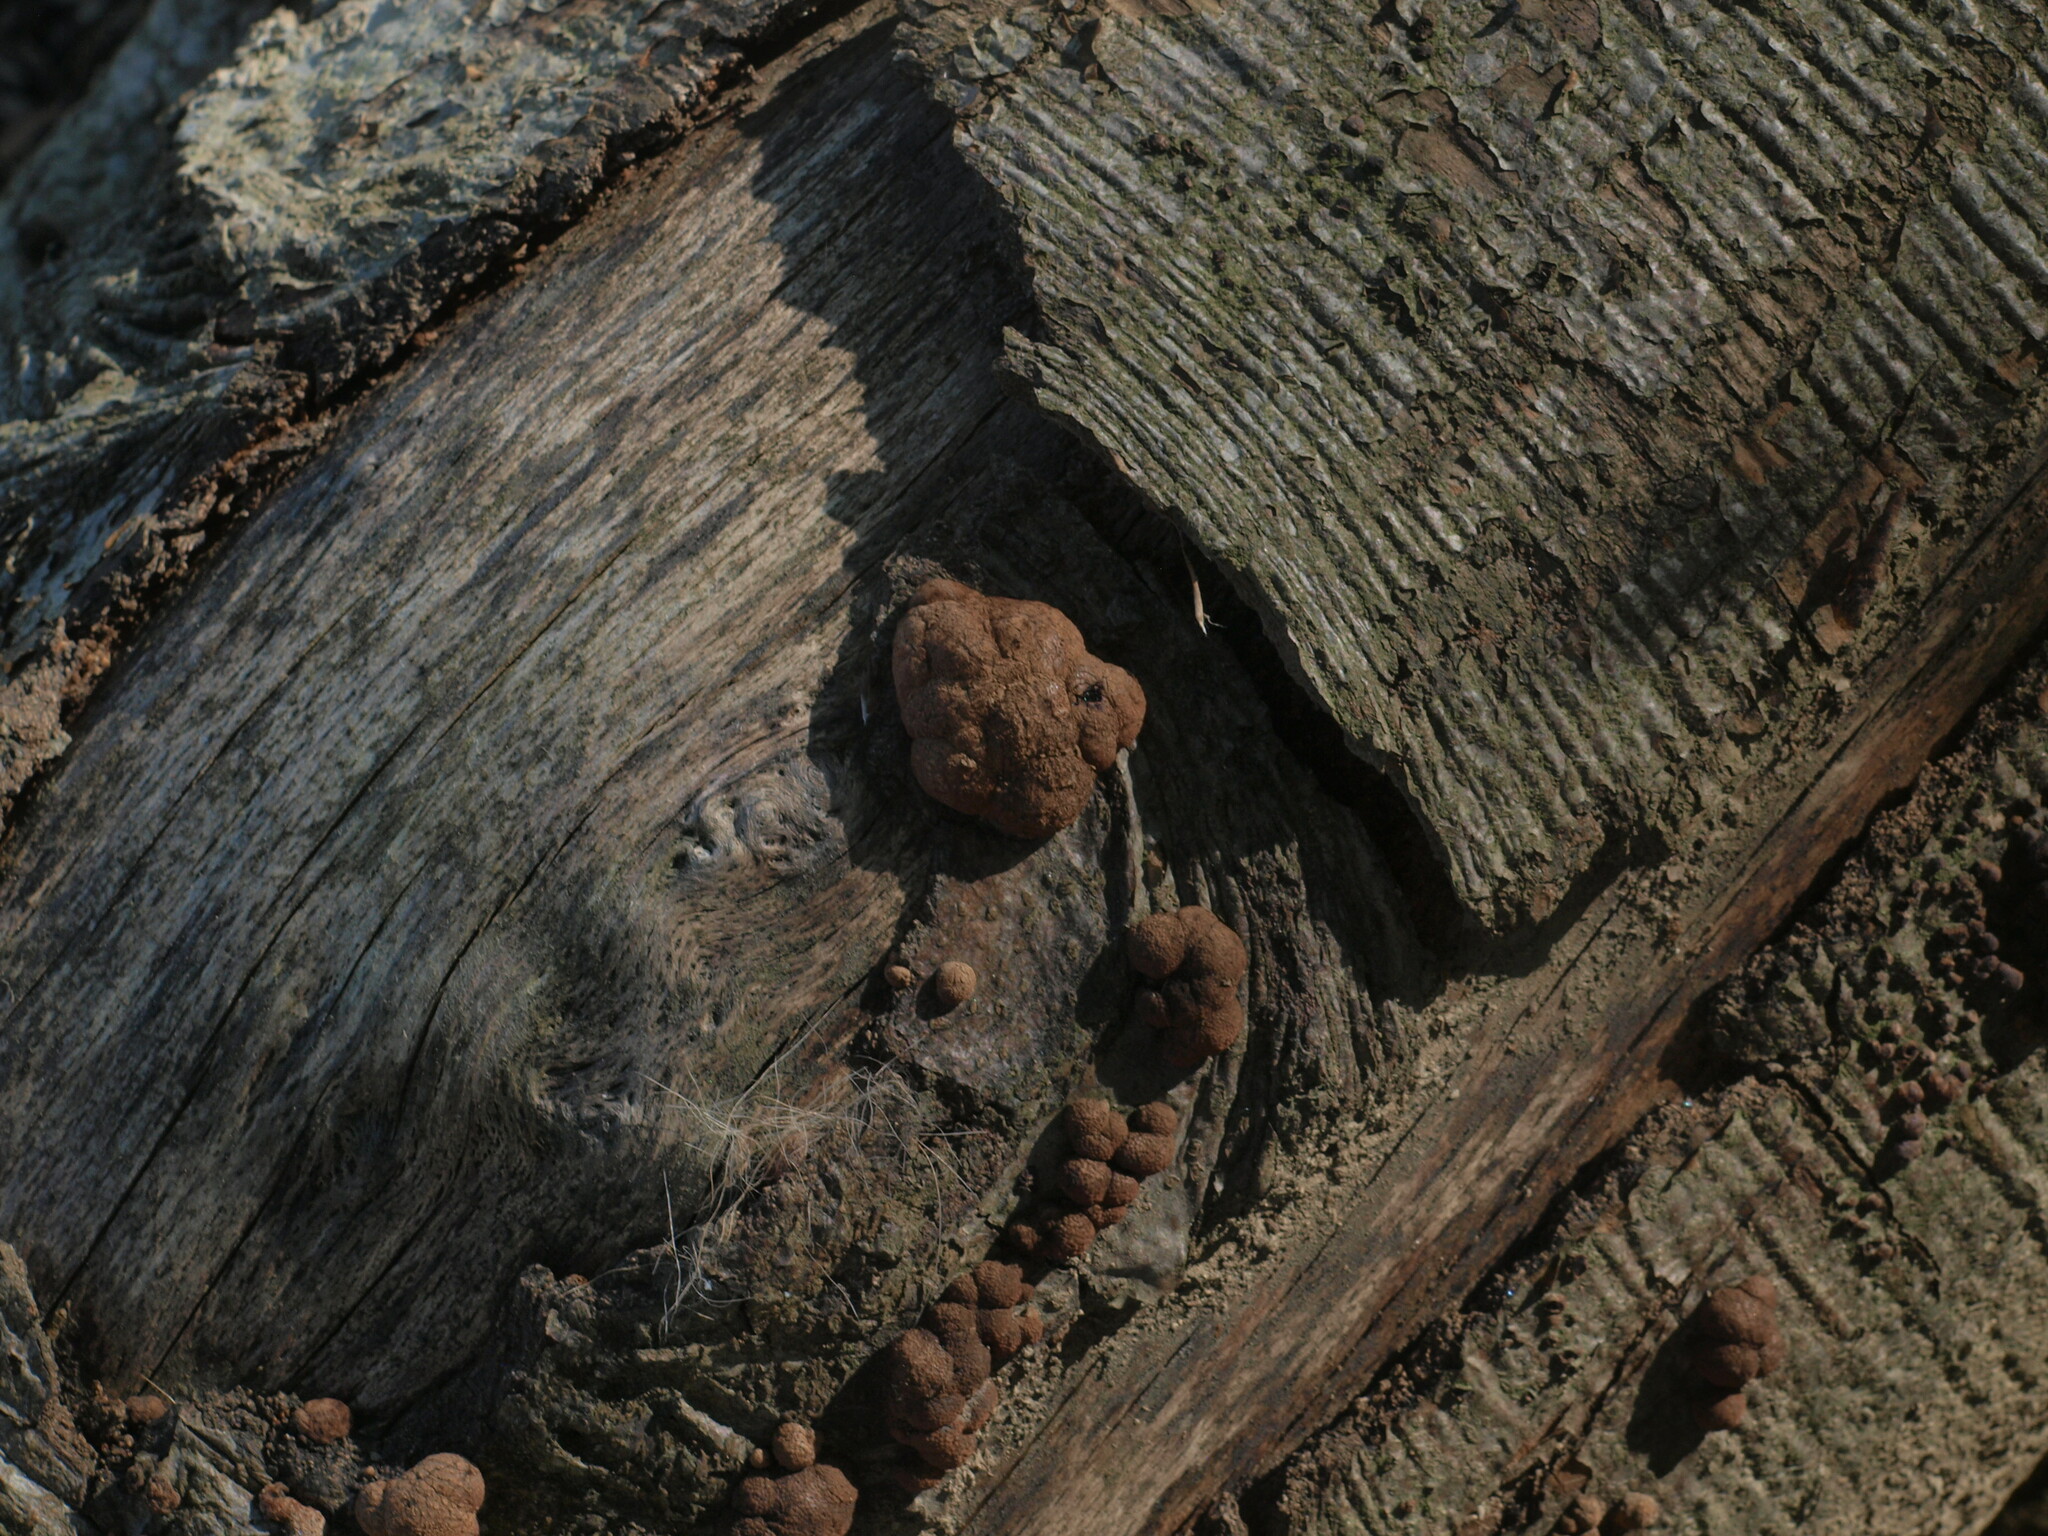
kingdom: Fungi
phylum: Ascomycota
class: Sordariomycetes
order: Xylariales
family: Hypoxylaceae
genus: Hypoxylon
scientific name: Hypoxylon fragiforme
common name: Beech woodwart
